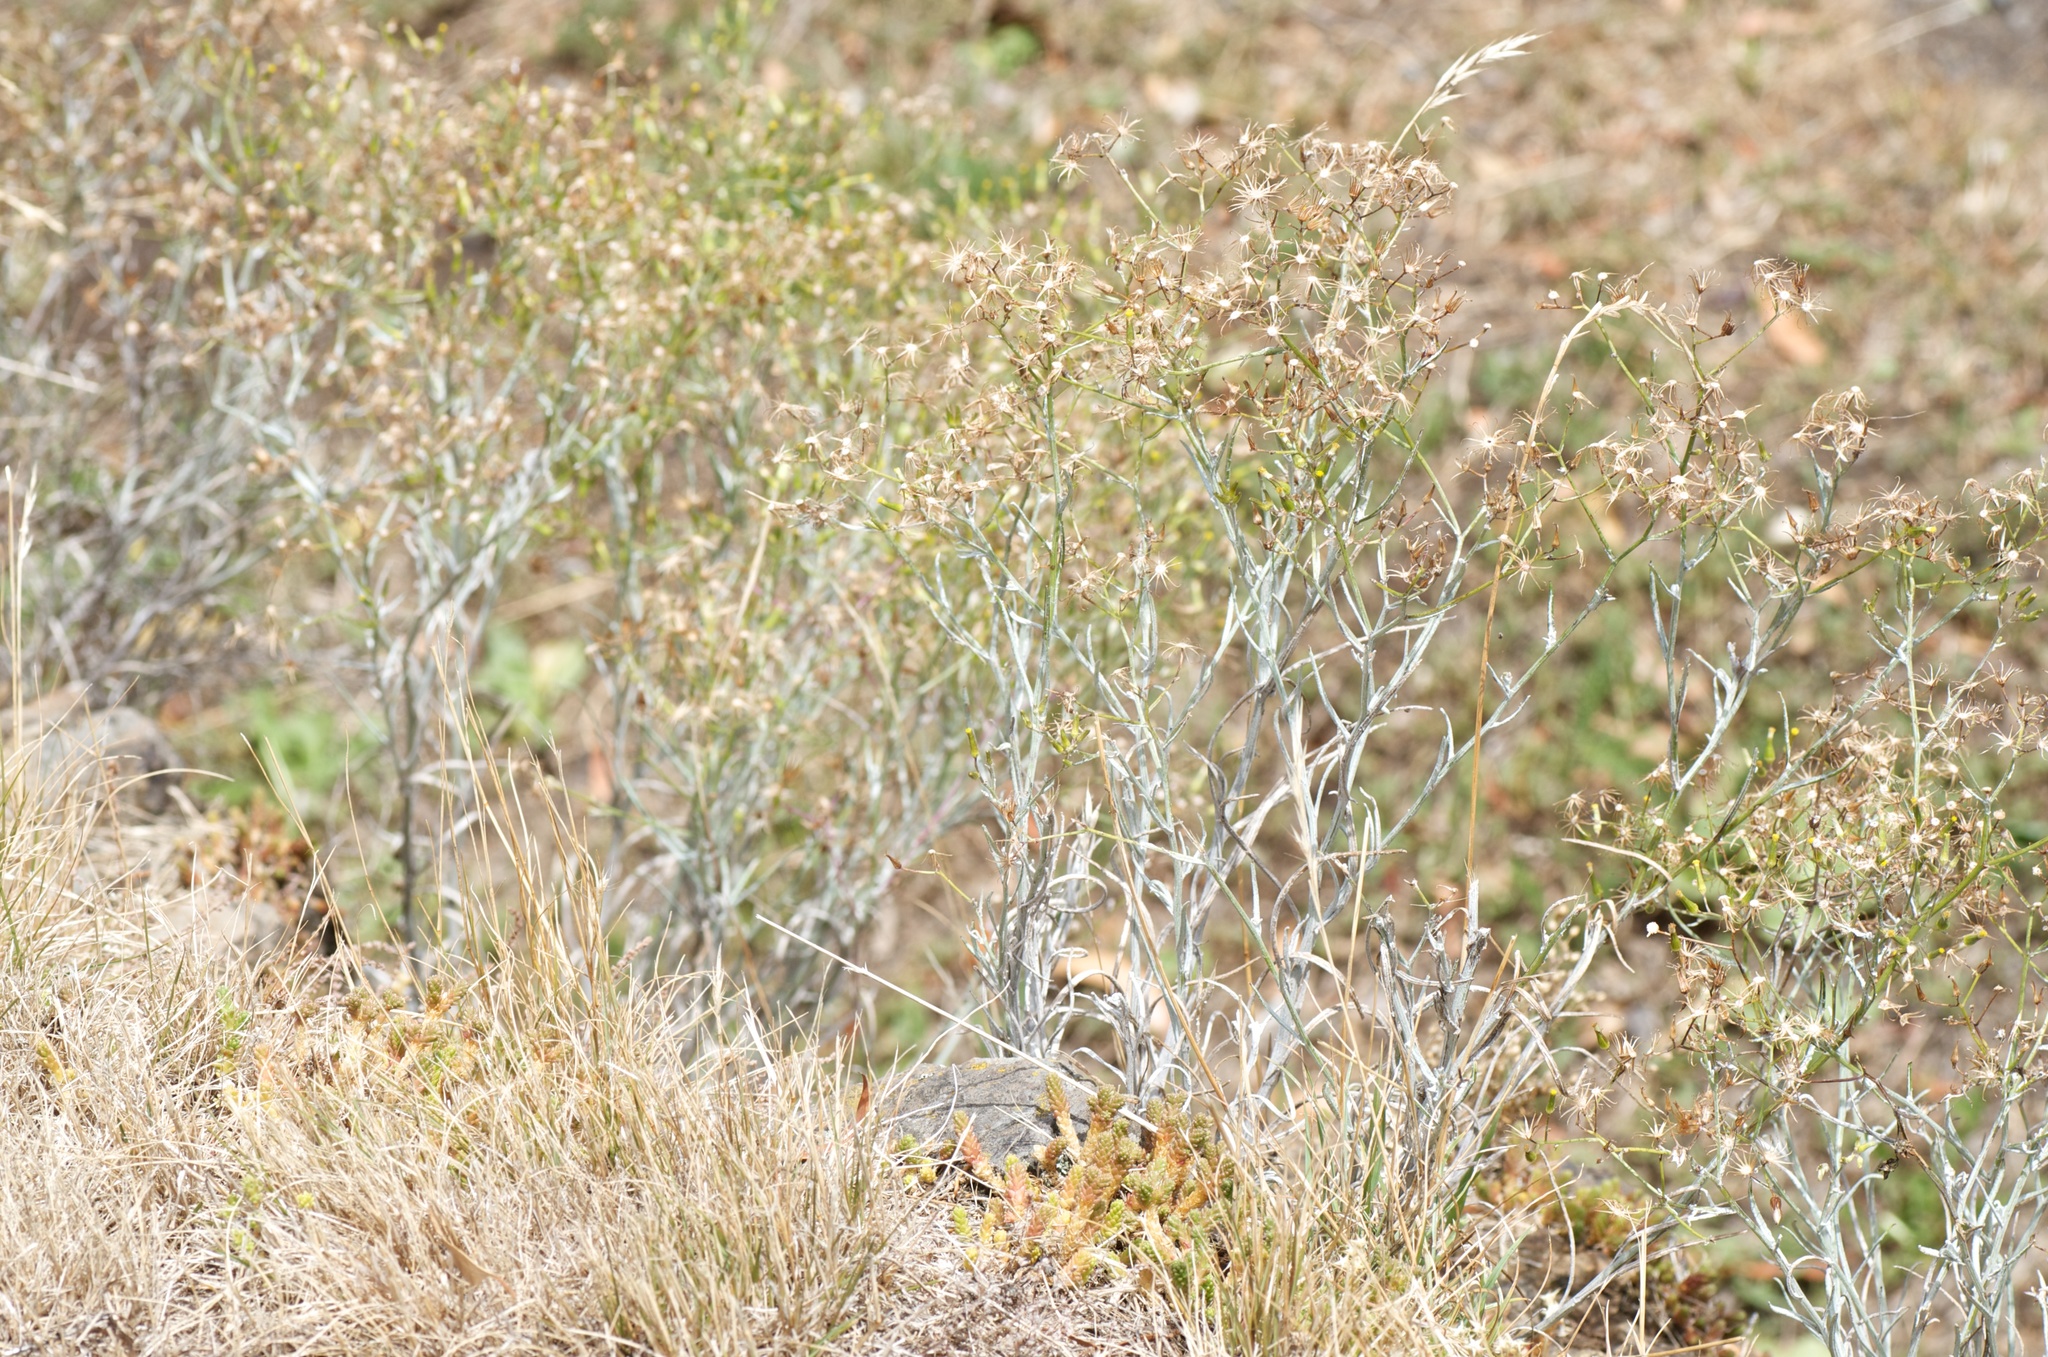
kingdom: Plantae
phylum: Tracheophyta
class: Magnoliopsida
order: Asterales
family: Asteraceae
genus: Senecio
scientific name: Senecio quadridentatus
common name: Cotton fireweed
